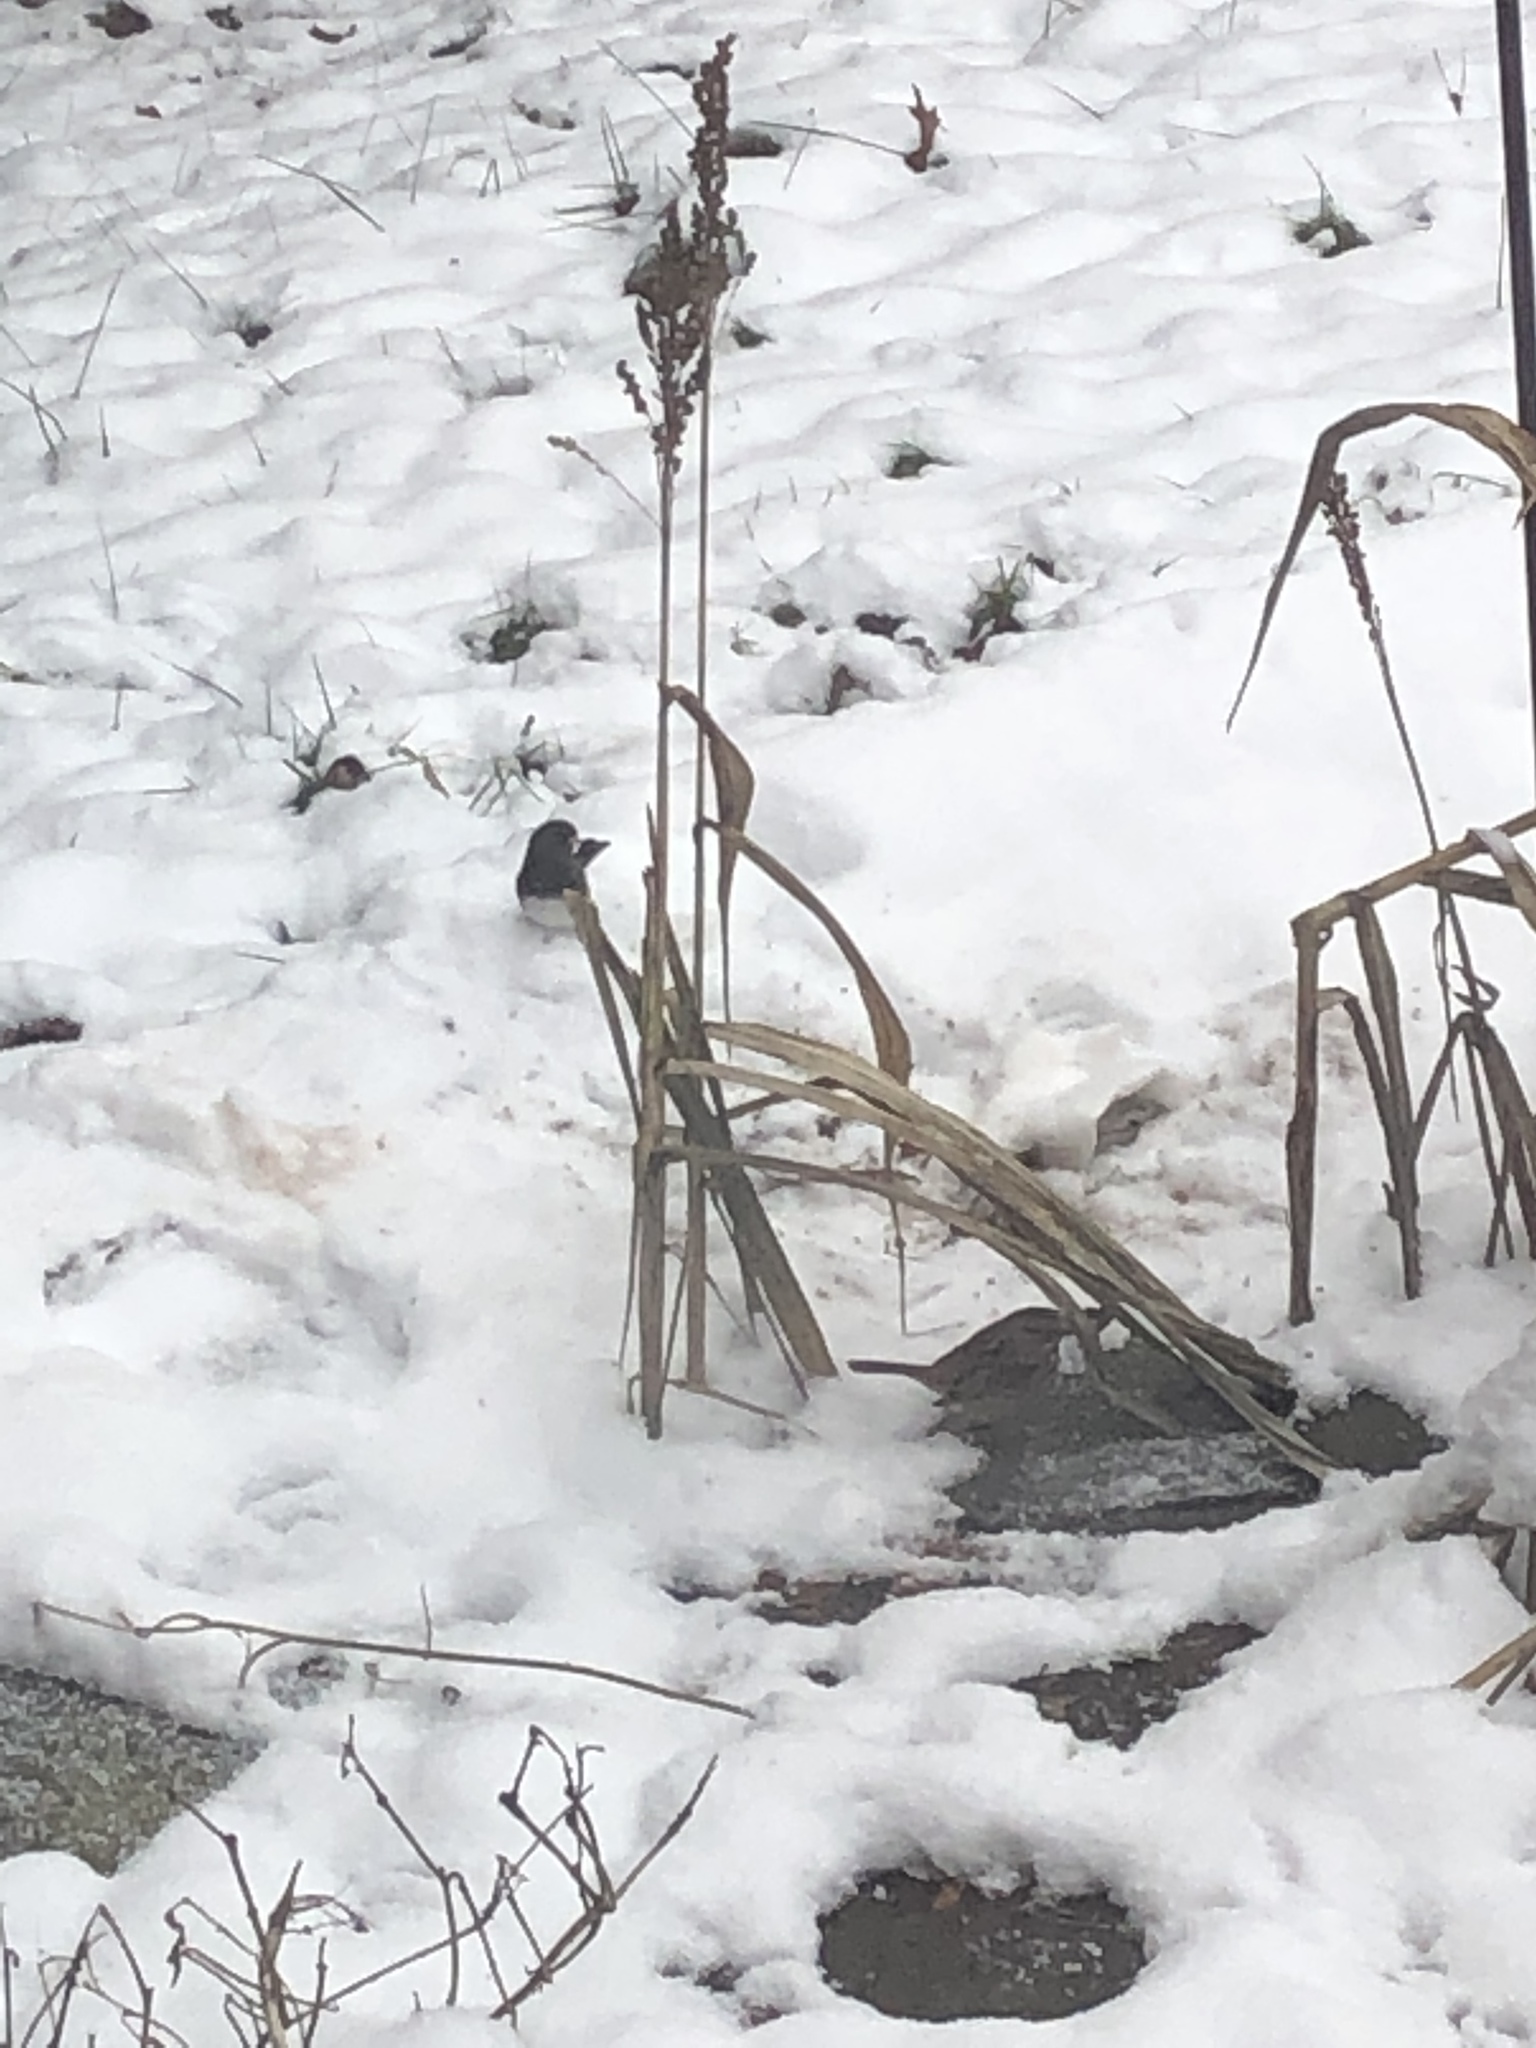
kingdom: Animalia
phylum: Chordata
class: Aves
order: Passeriformes
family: Passerellidae
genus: Junco
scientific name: Junco hyemalis
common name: Dark-eyed junco
